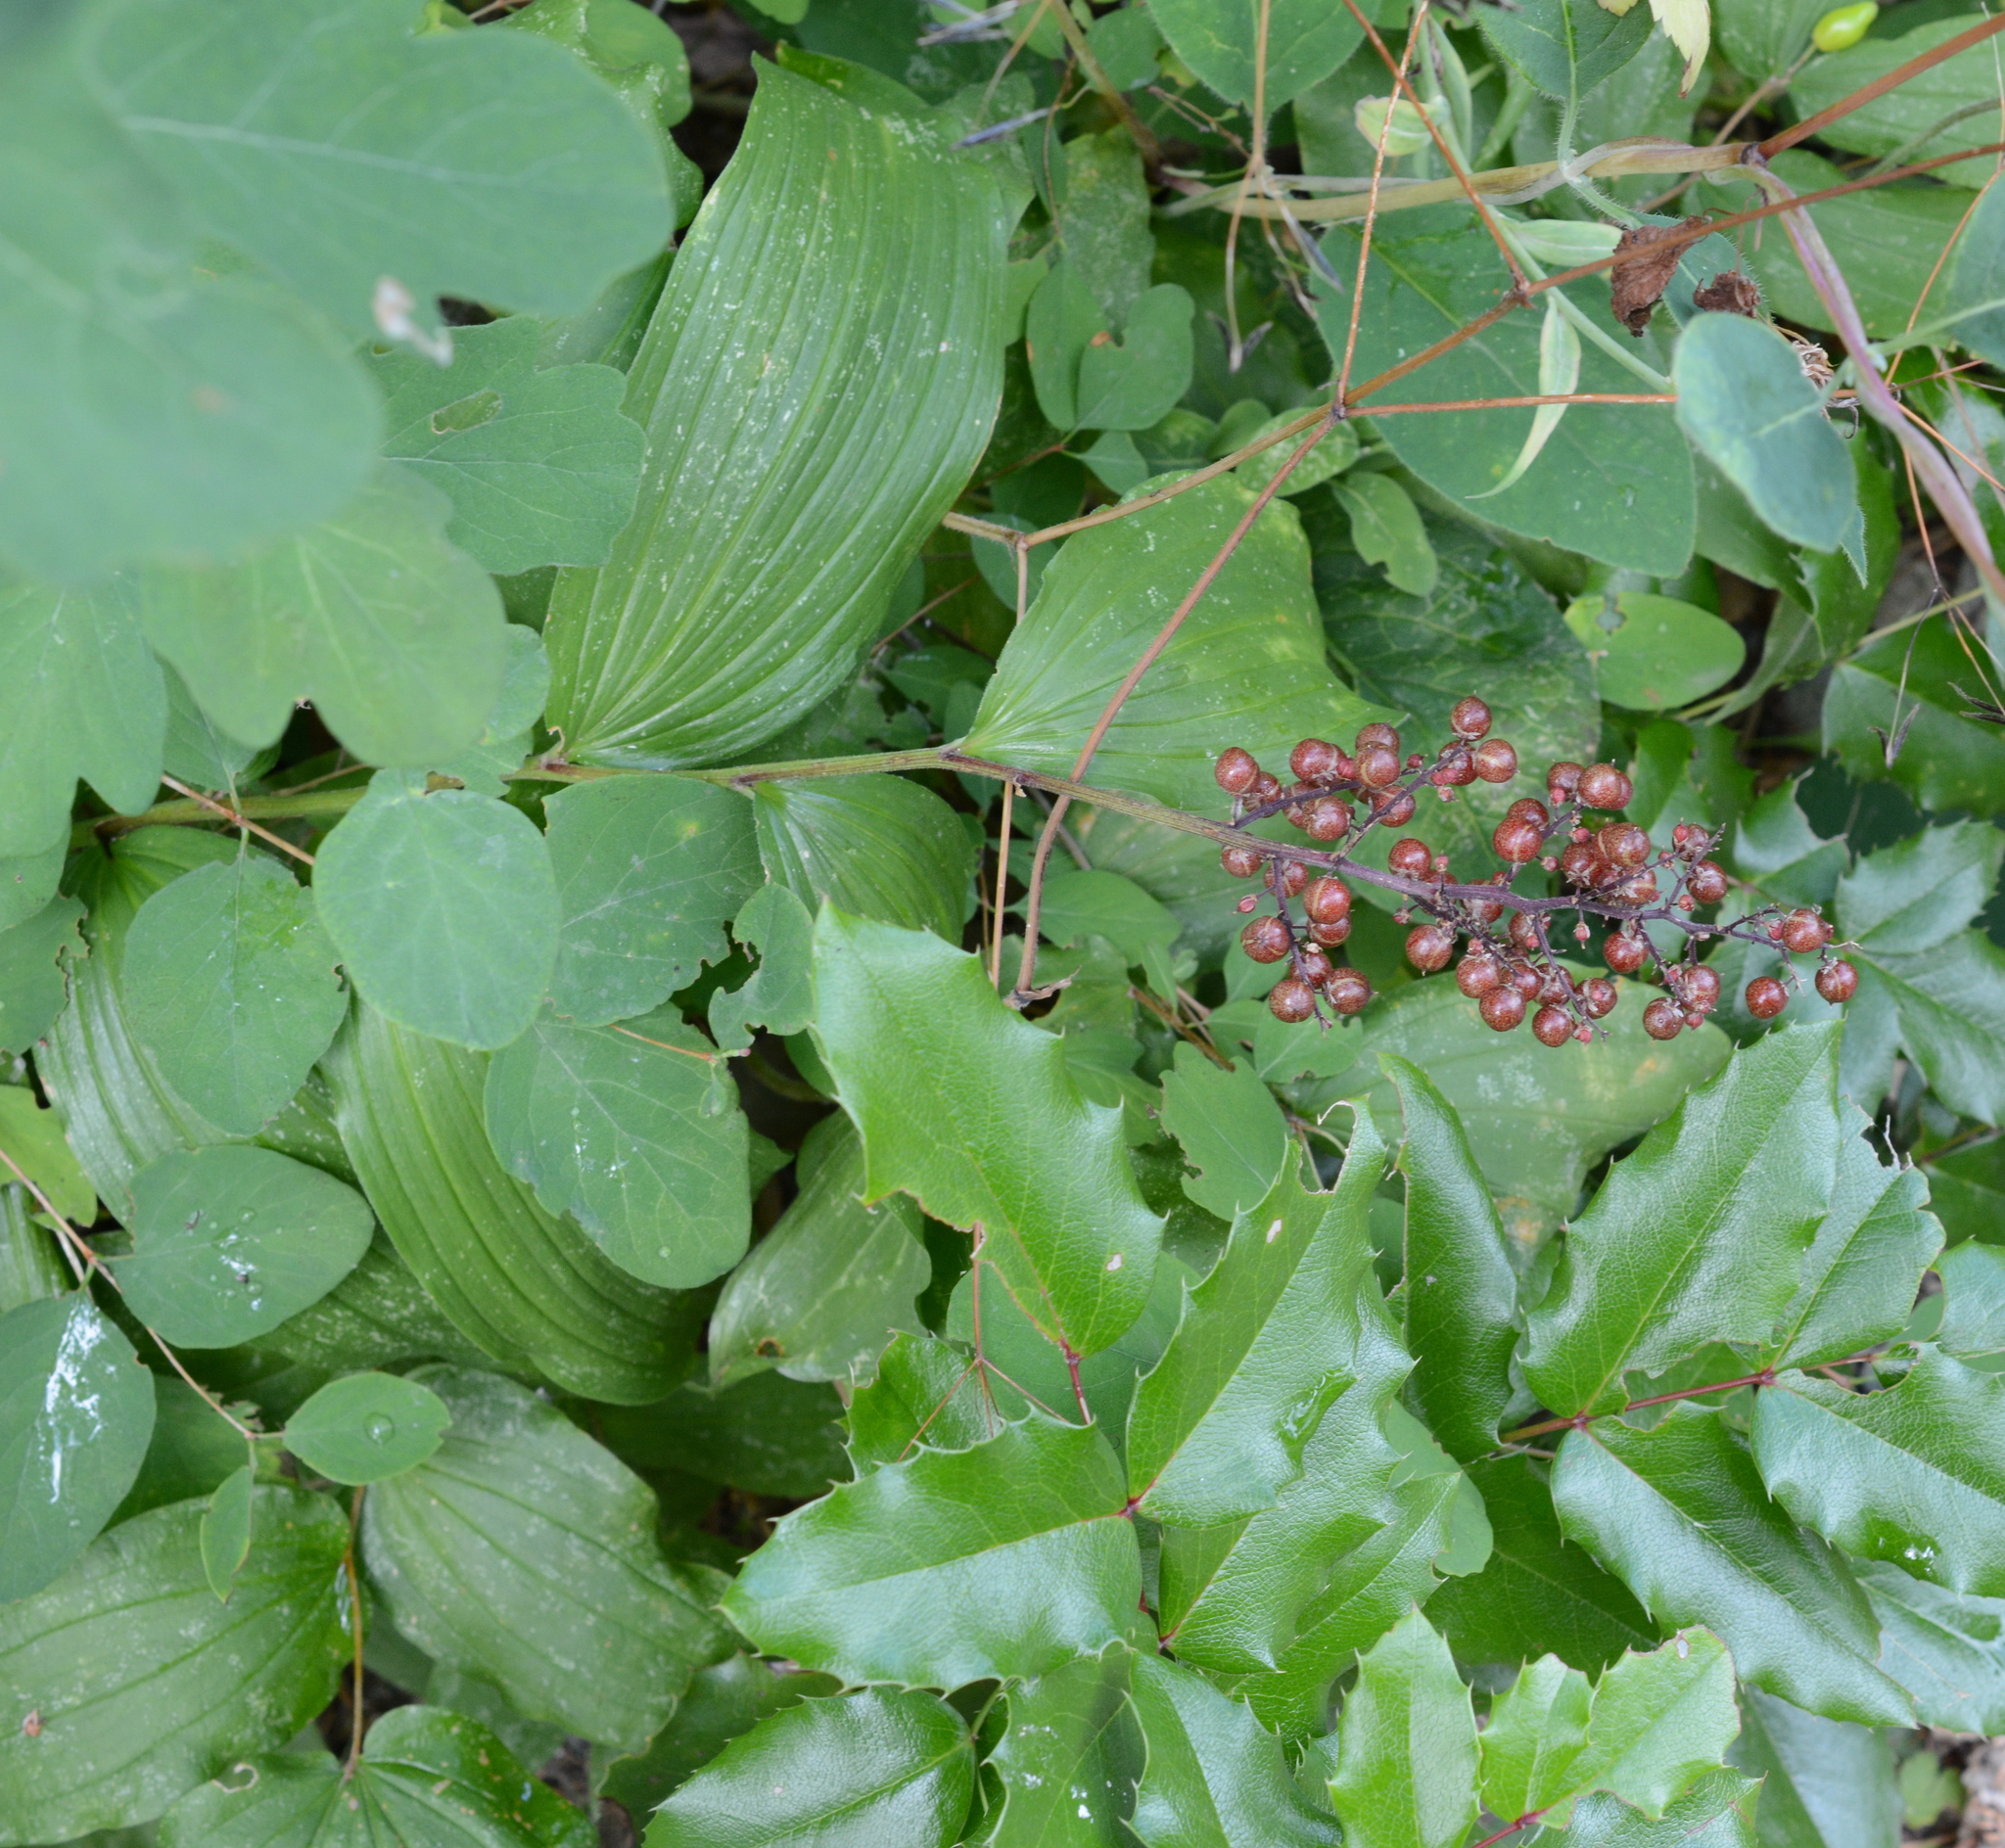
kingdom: Plantae
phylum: Tracheophyta
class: Liliopsida
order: Asparagales
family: Asparagaceae
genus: Maianthemum
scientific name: Maianthemum racemosum
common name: False spikenard
